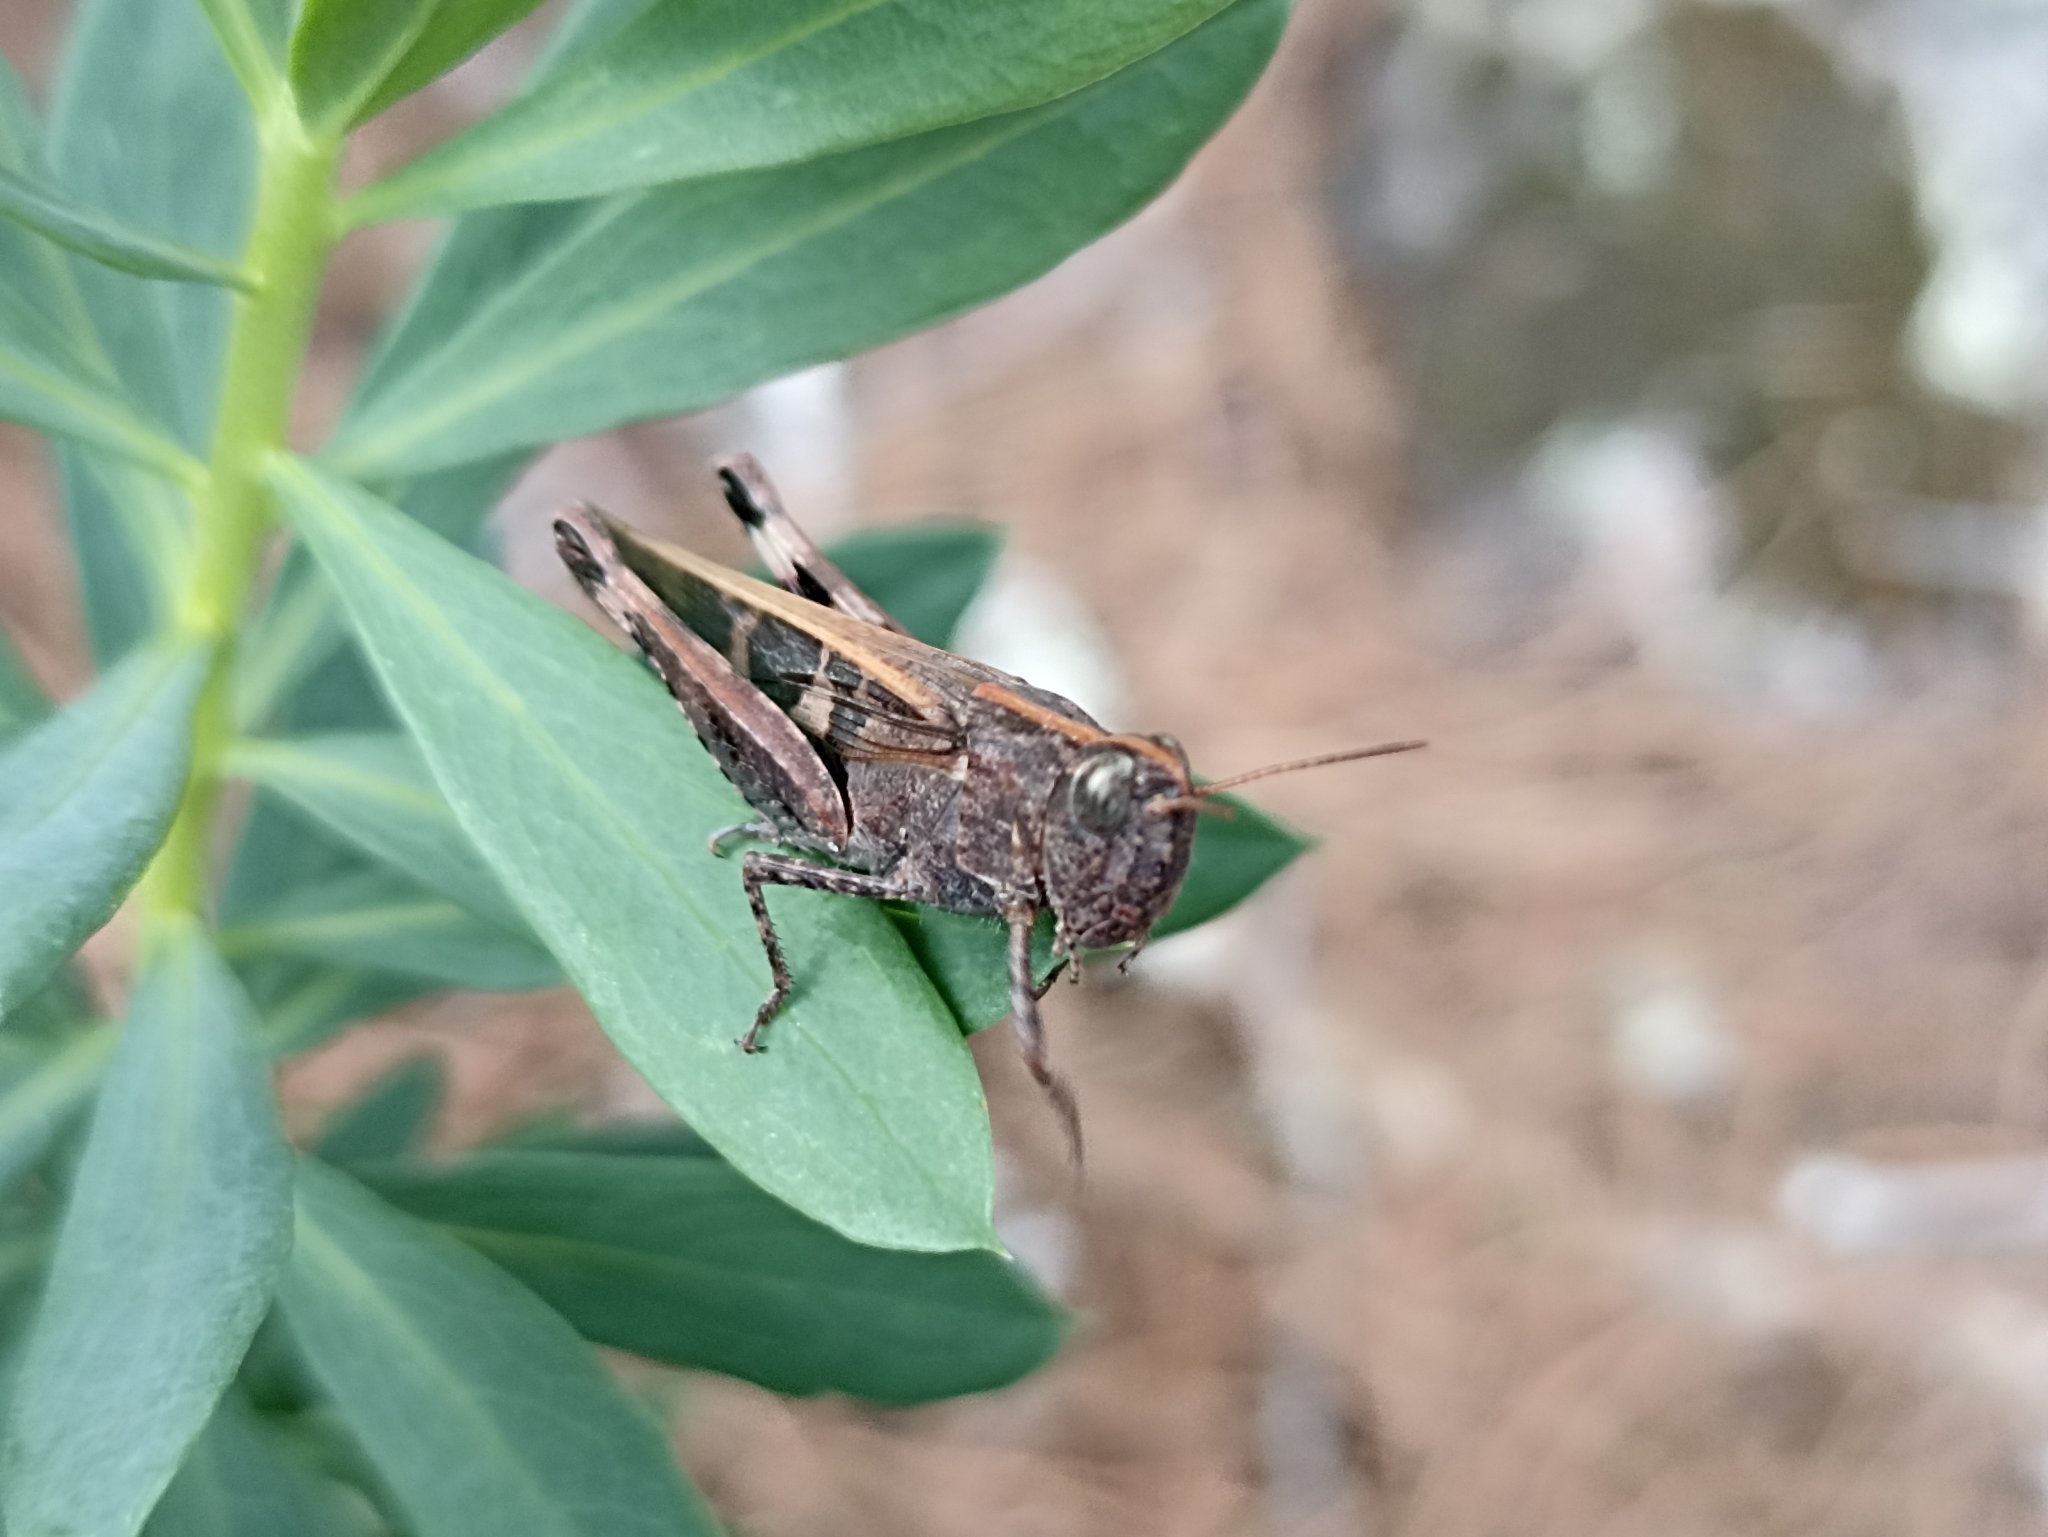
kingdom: Animalia
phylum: Arthropoda
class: Insecta
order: Orthoptera
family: Acrididae
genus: Aiolopus
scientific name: Aiolopus strepens
